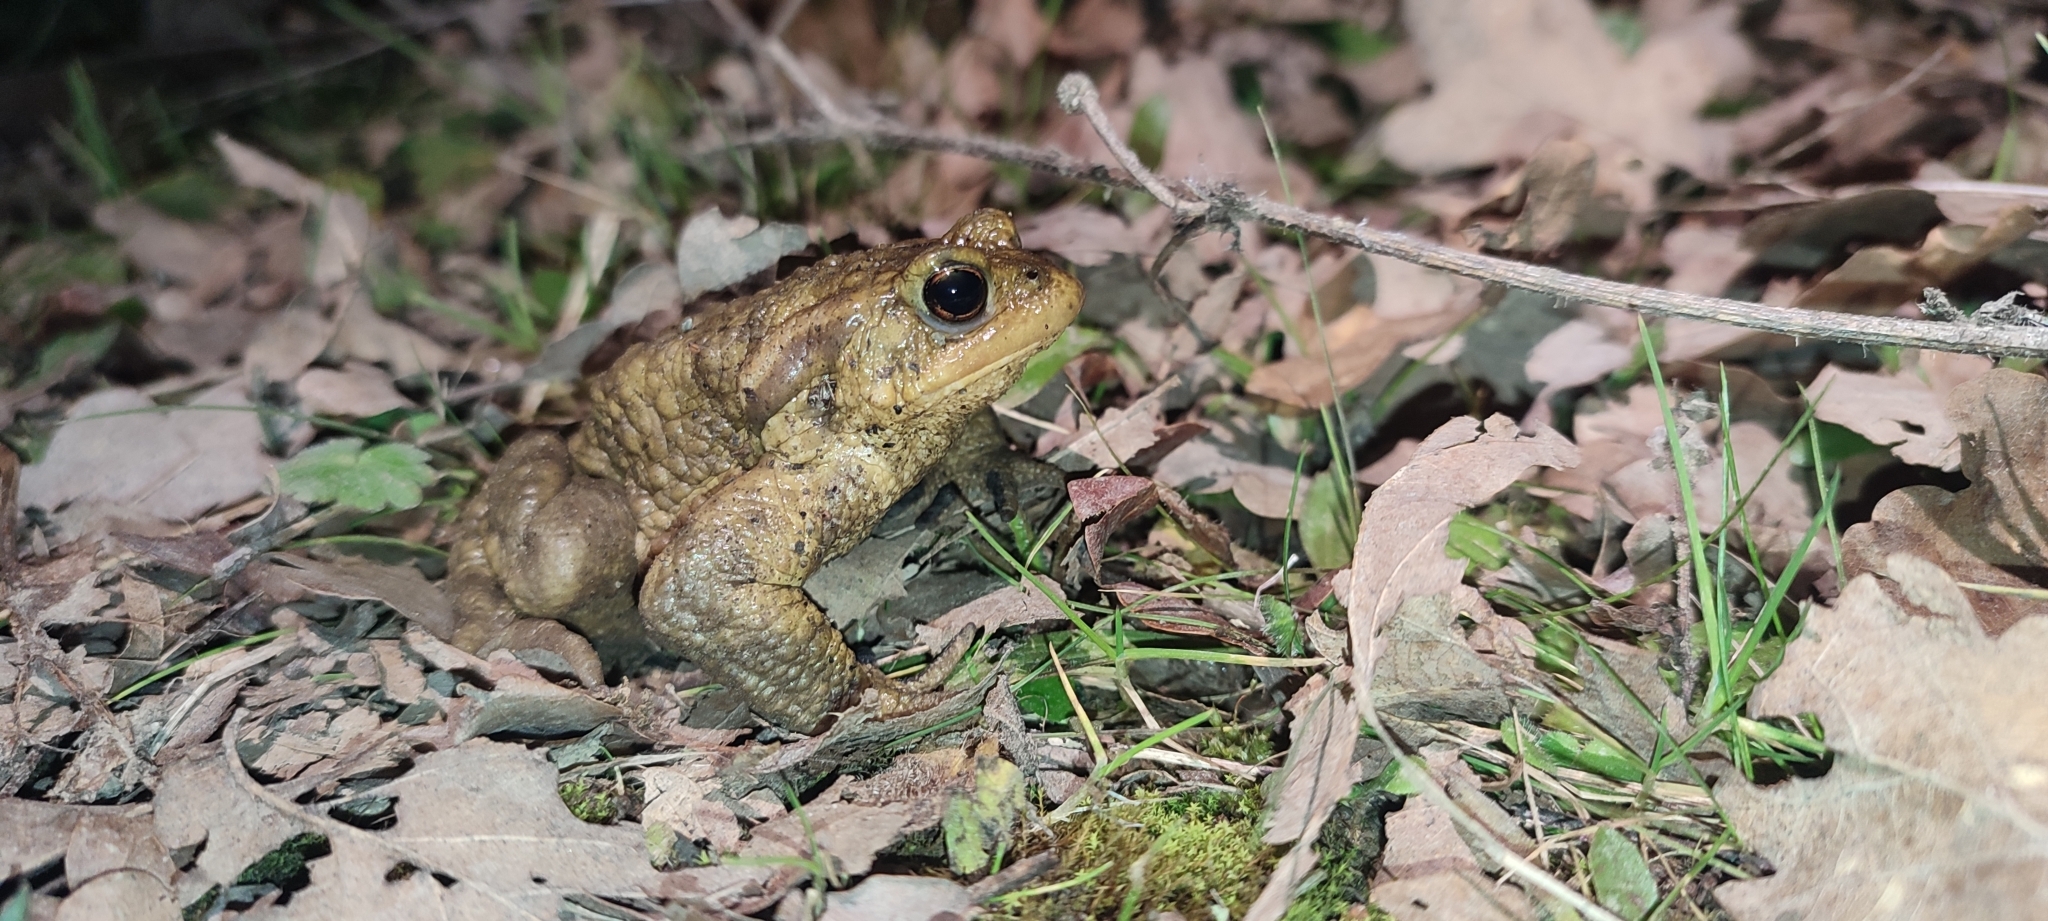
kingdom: Animalia
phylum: Chordata
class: Amphibia
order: Anura
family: Bufonidae
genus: Bufo
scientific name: Bufo spinosus
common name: Western common toad
